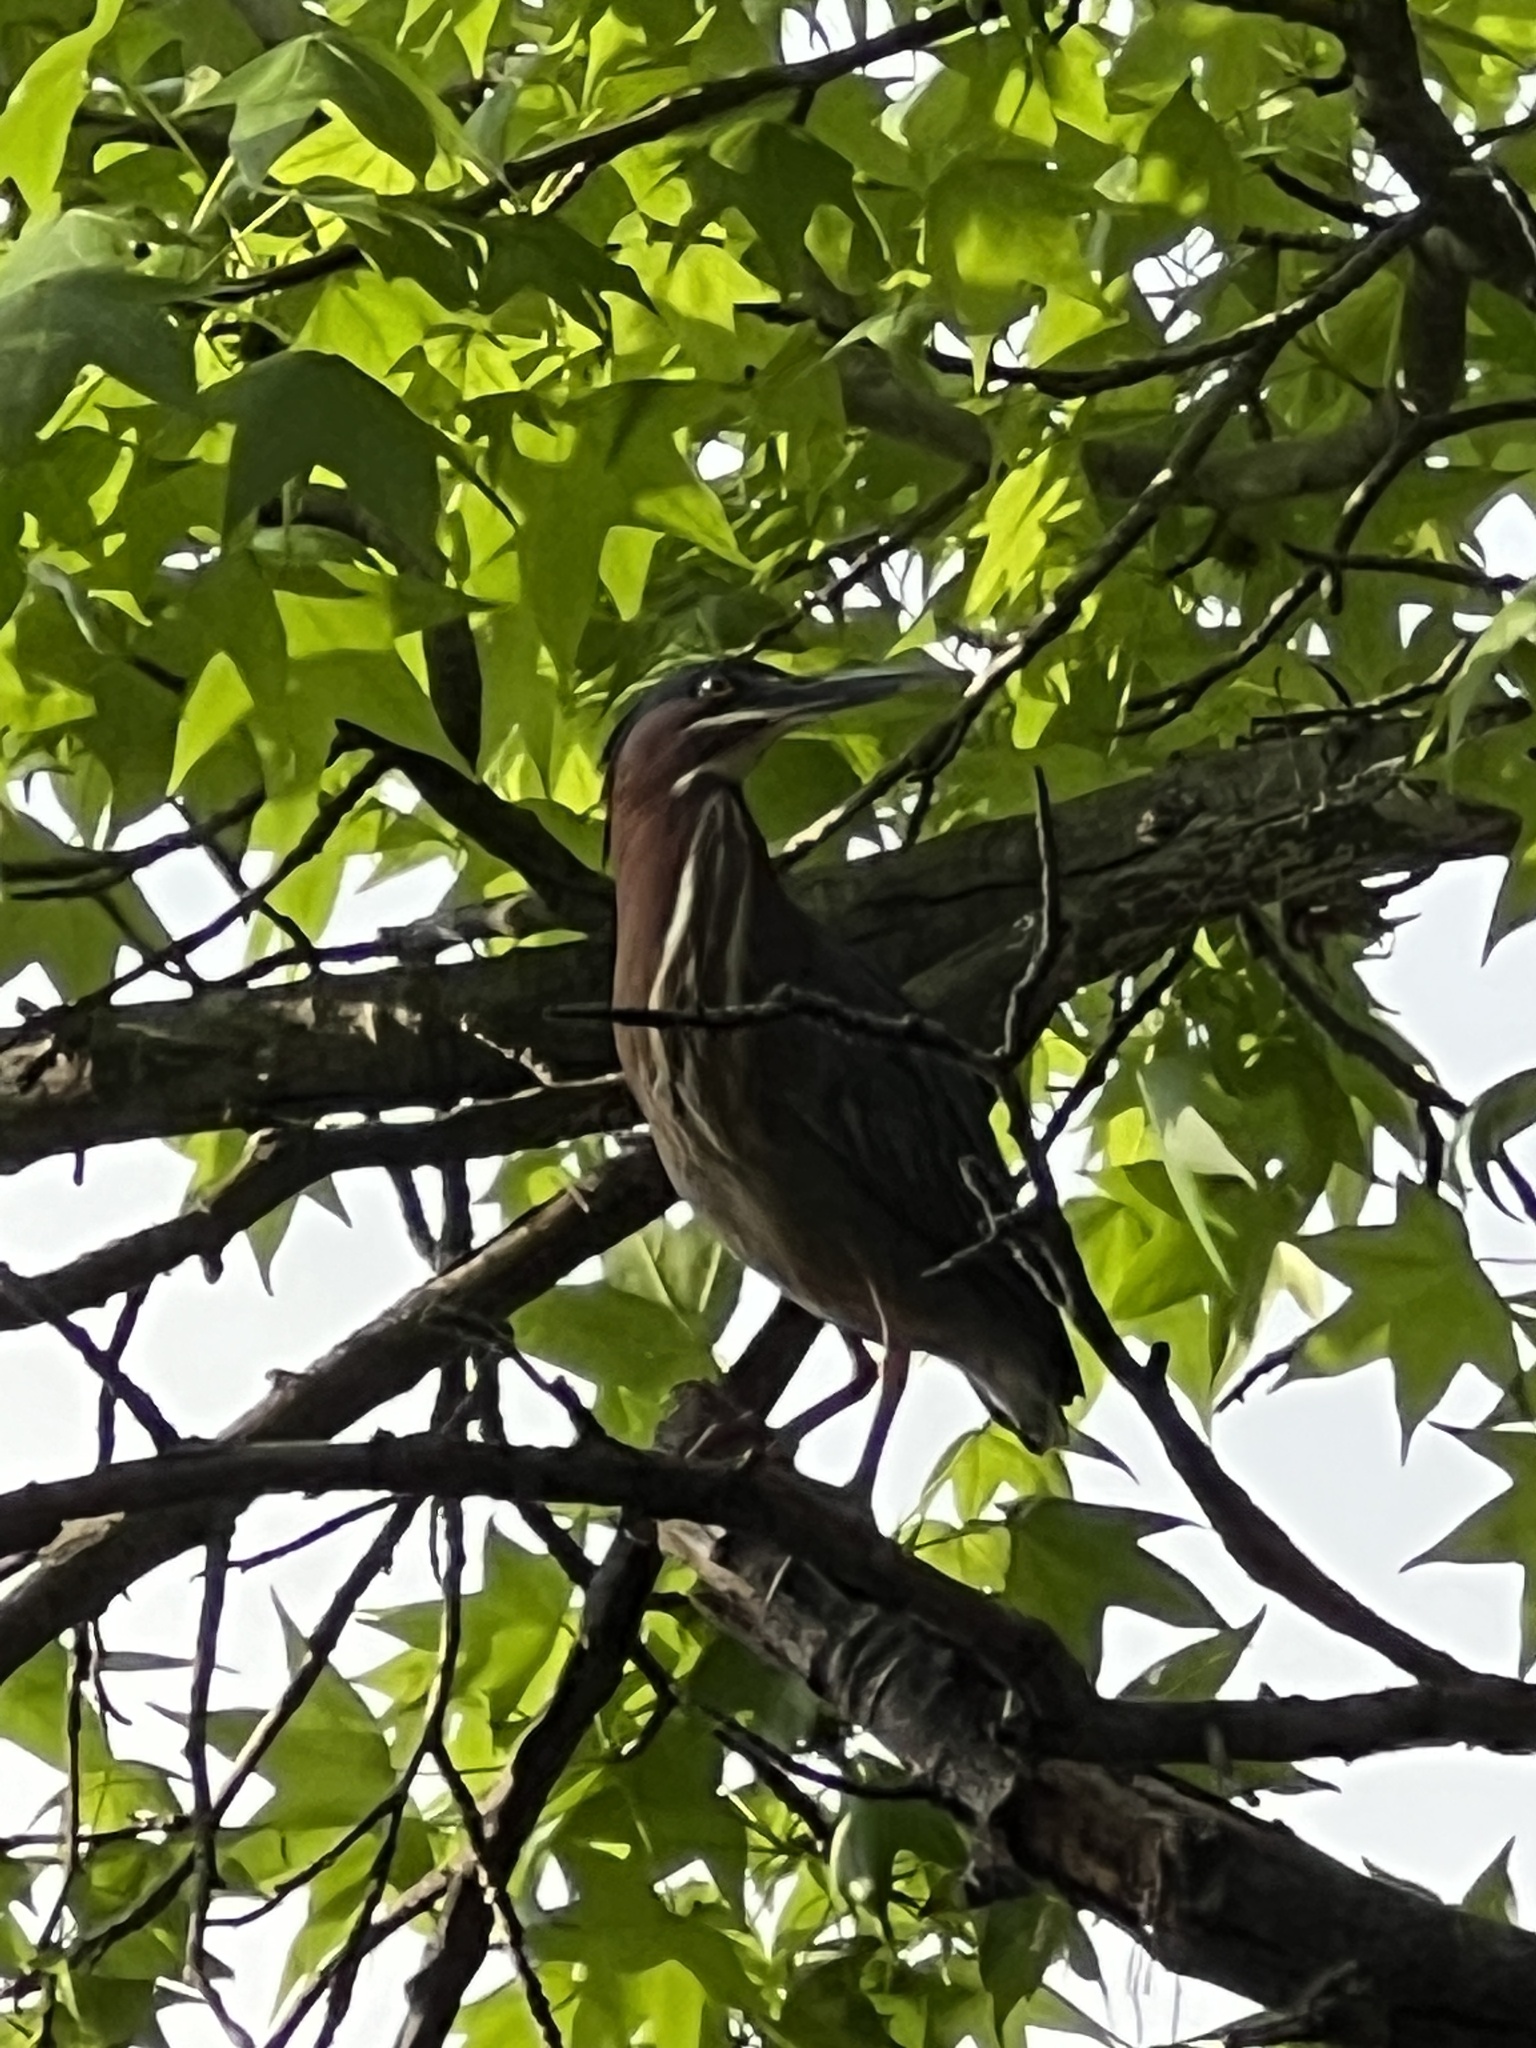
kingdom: Animalia
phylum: Chordata
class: Aves
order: Pelecaniformes
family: Ardeidae
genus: Butorides
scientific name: Butorides virescens
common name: Green heron
